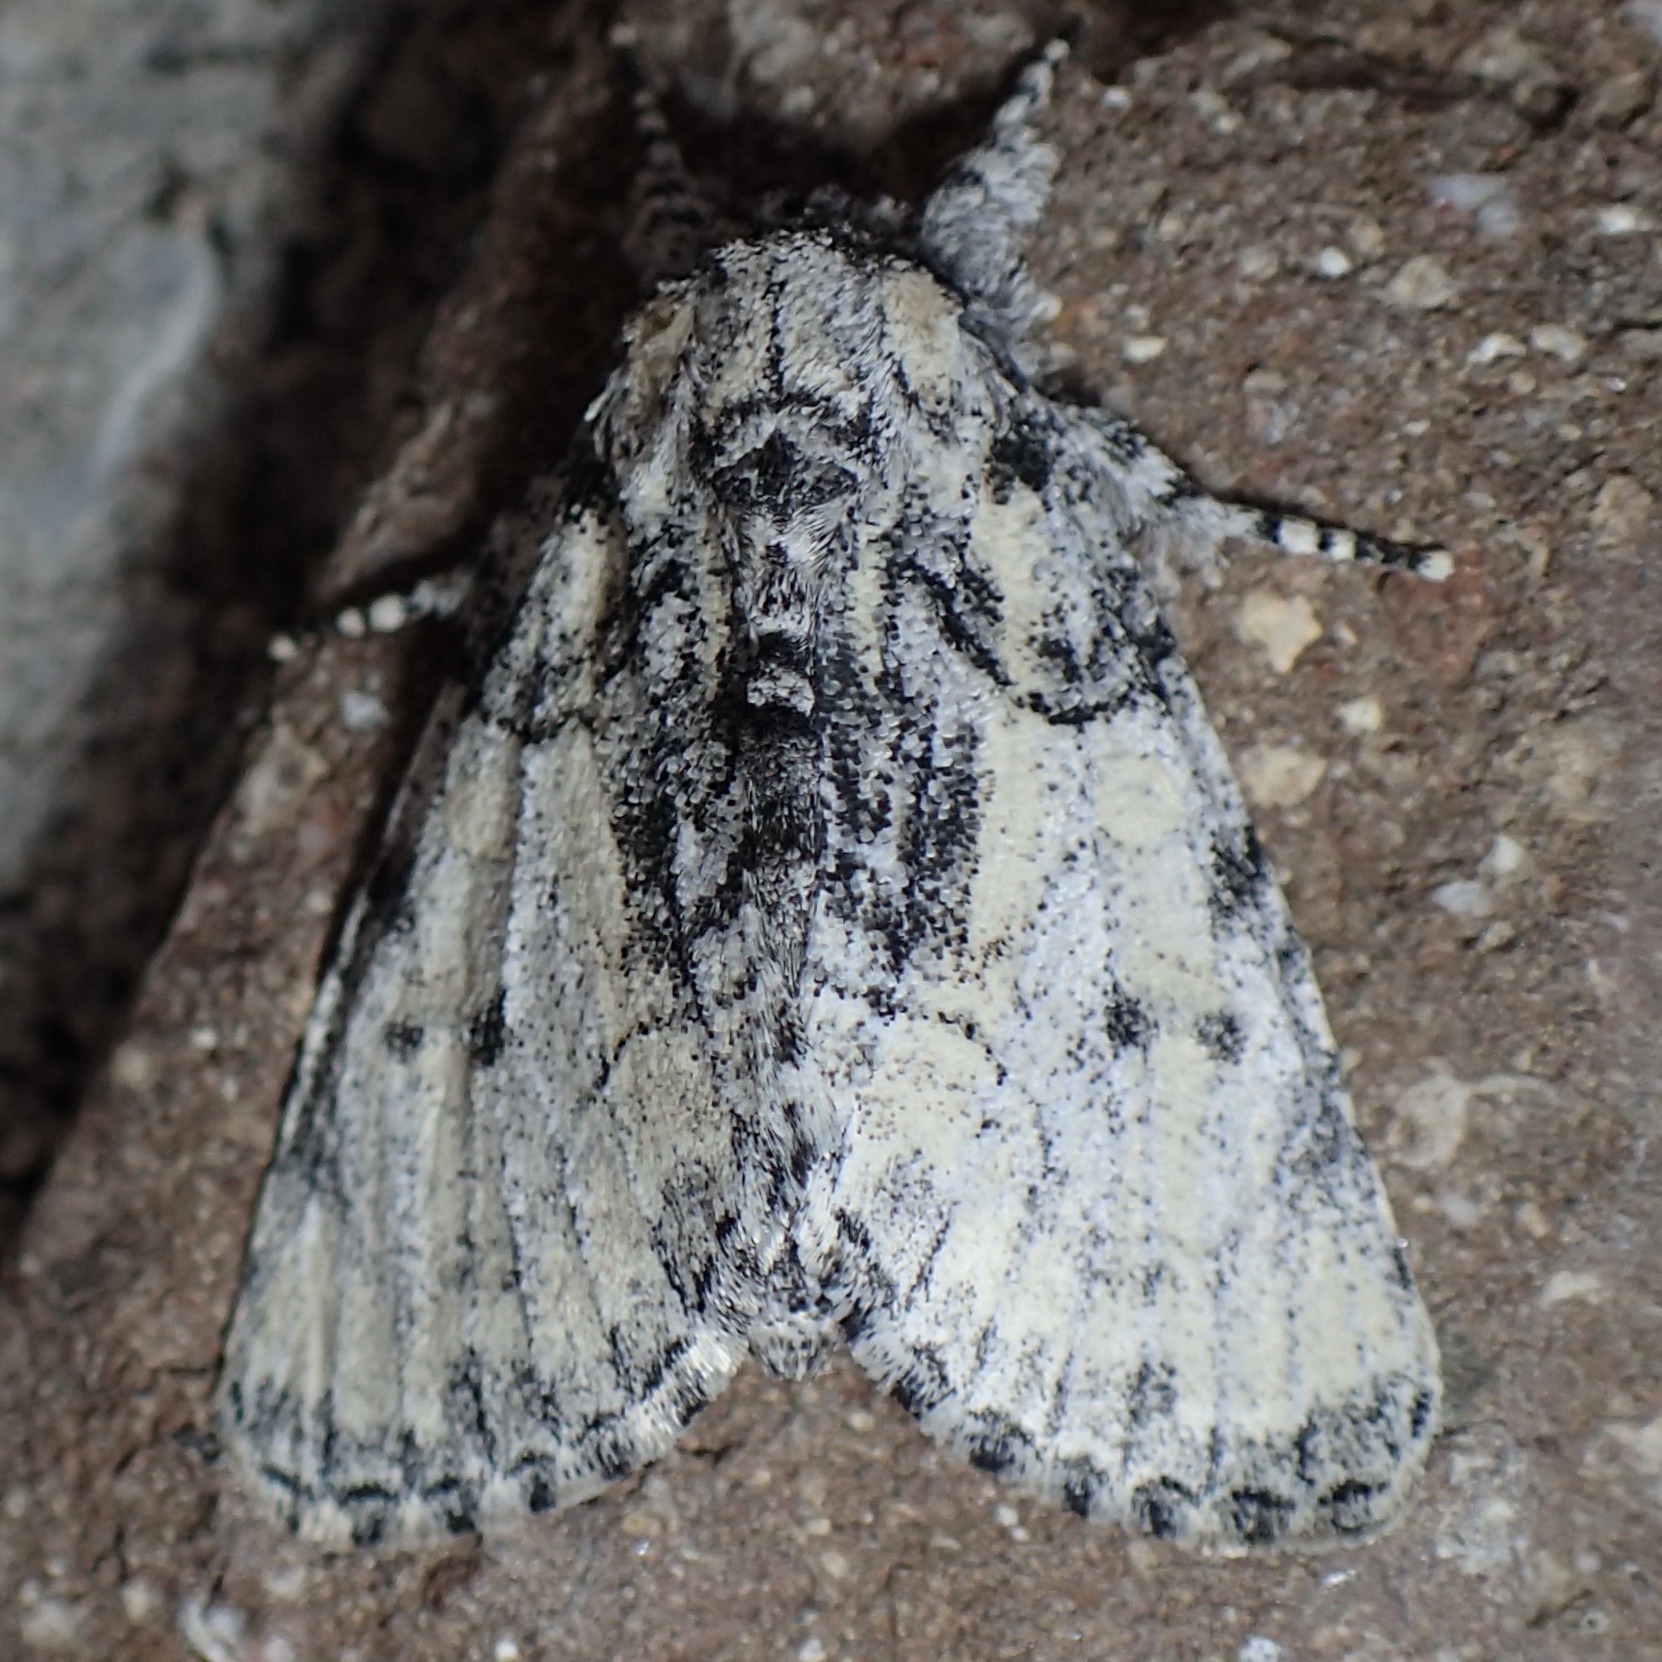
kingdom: Animalia
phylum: Arthropoda
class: Insecta
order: Lepidoptera
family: Noctuidae
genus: Raphia
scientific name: Raphia frater
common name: Brother
